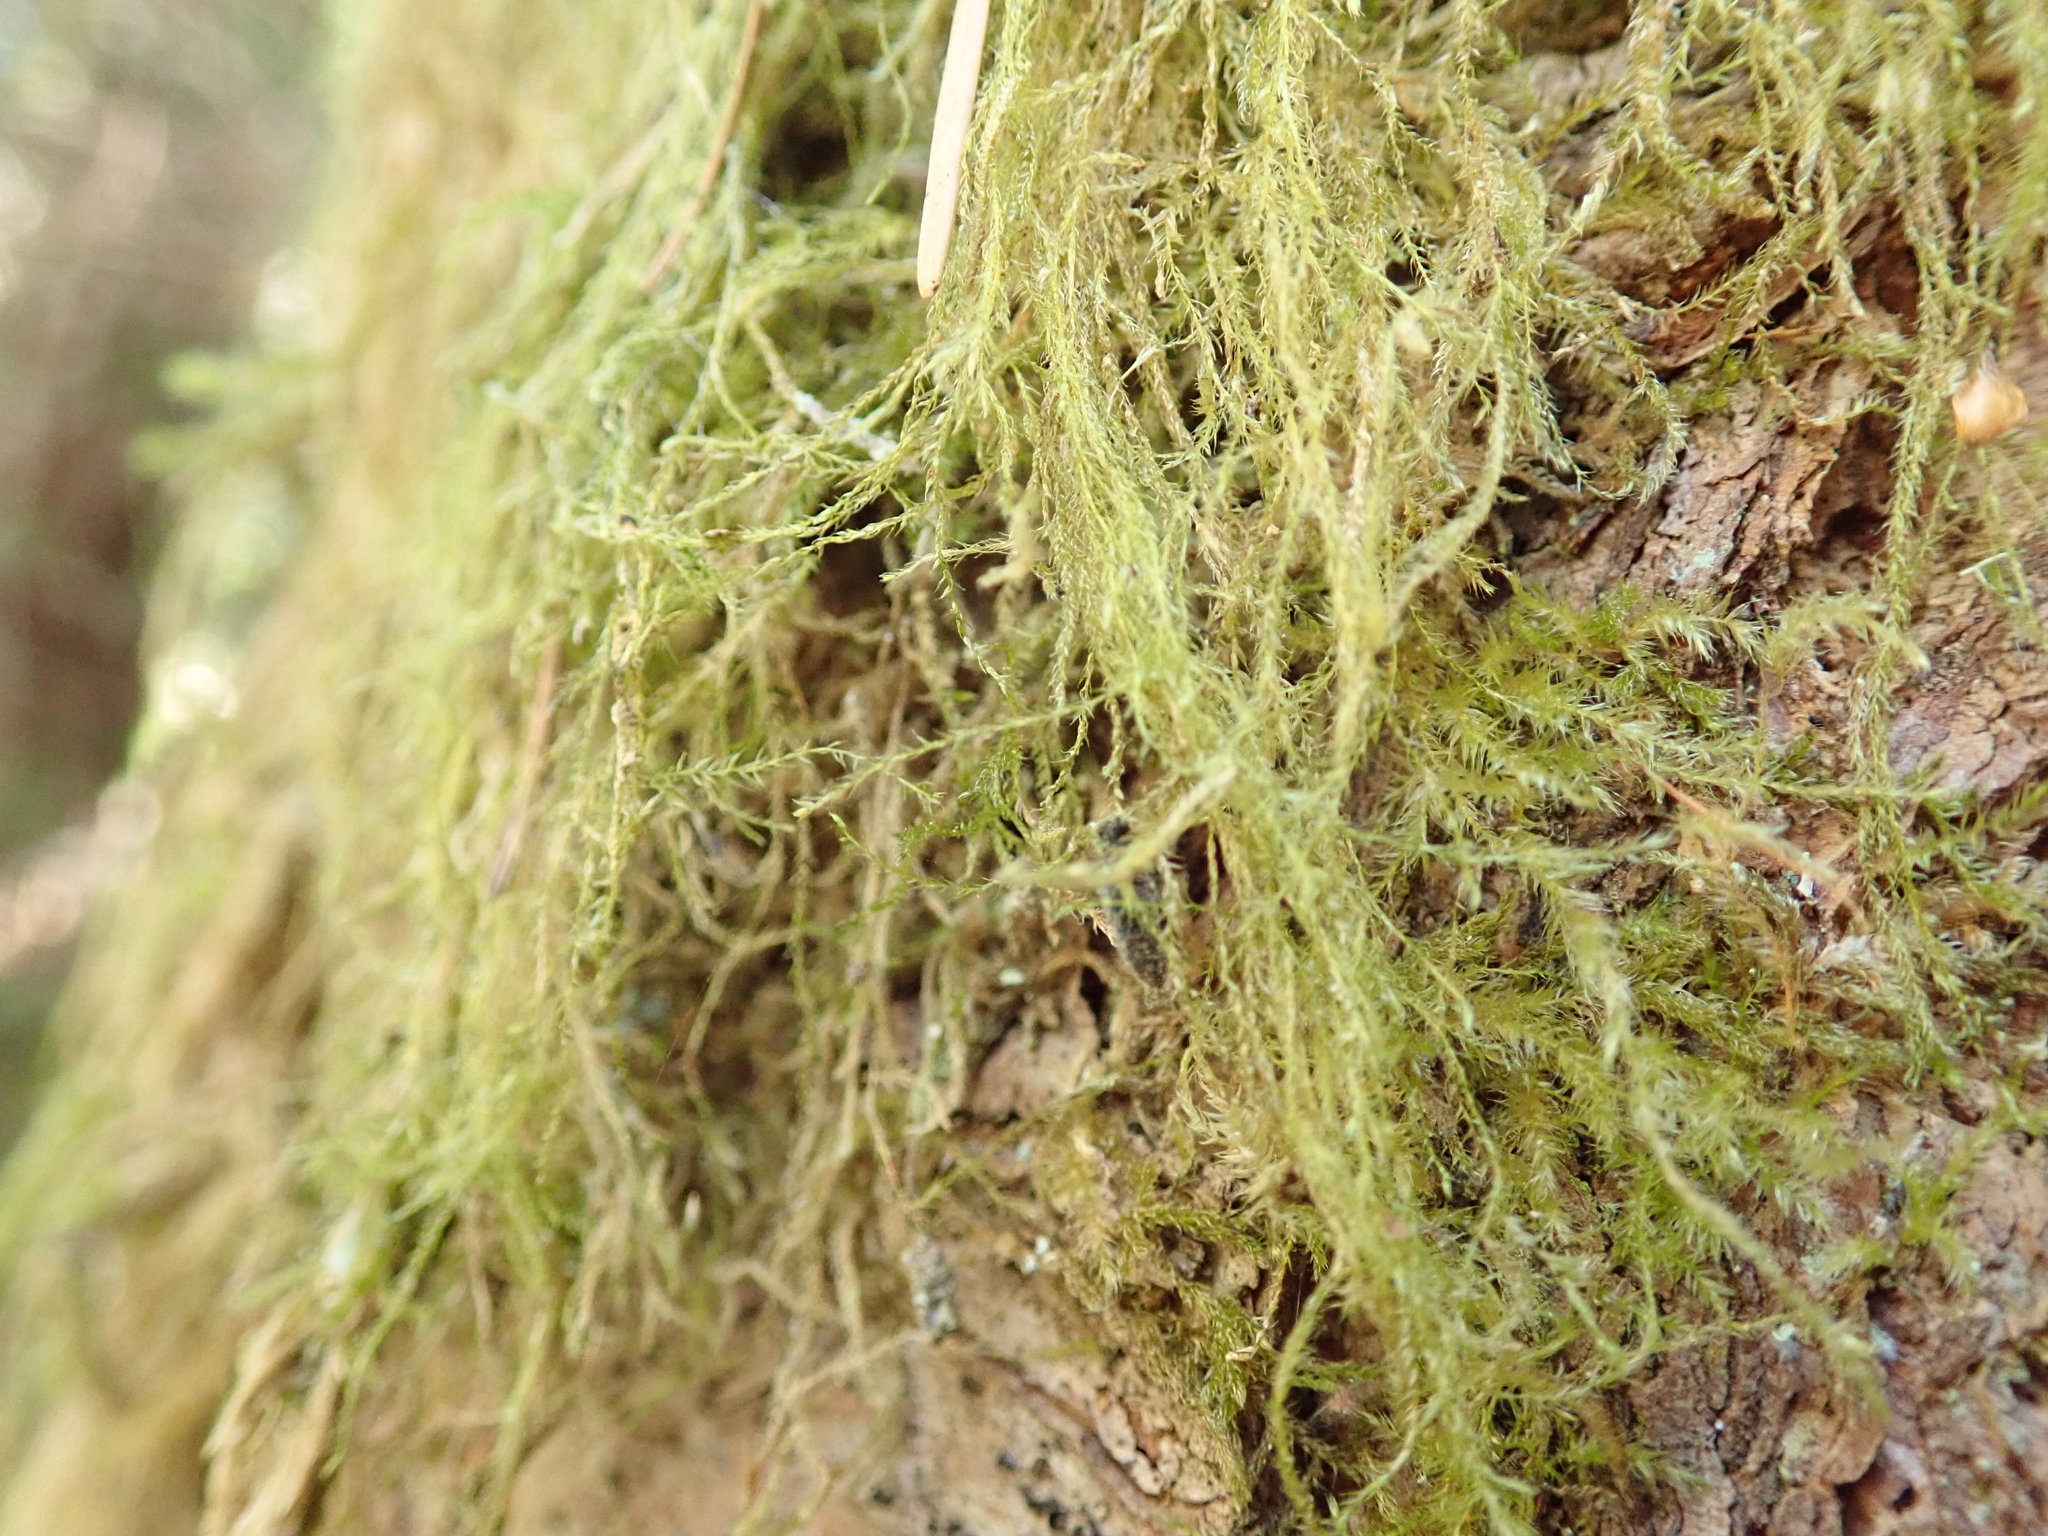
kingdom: Plantae
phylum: Bryophyta
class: Bryopsida
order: Hypnales
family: Lembophyllaceae
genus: Pseudisothecium
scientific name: Pseudisothecium stoloniferum
